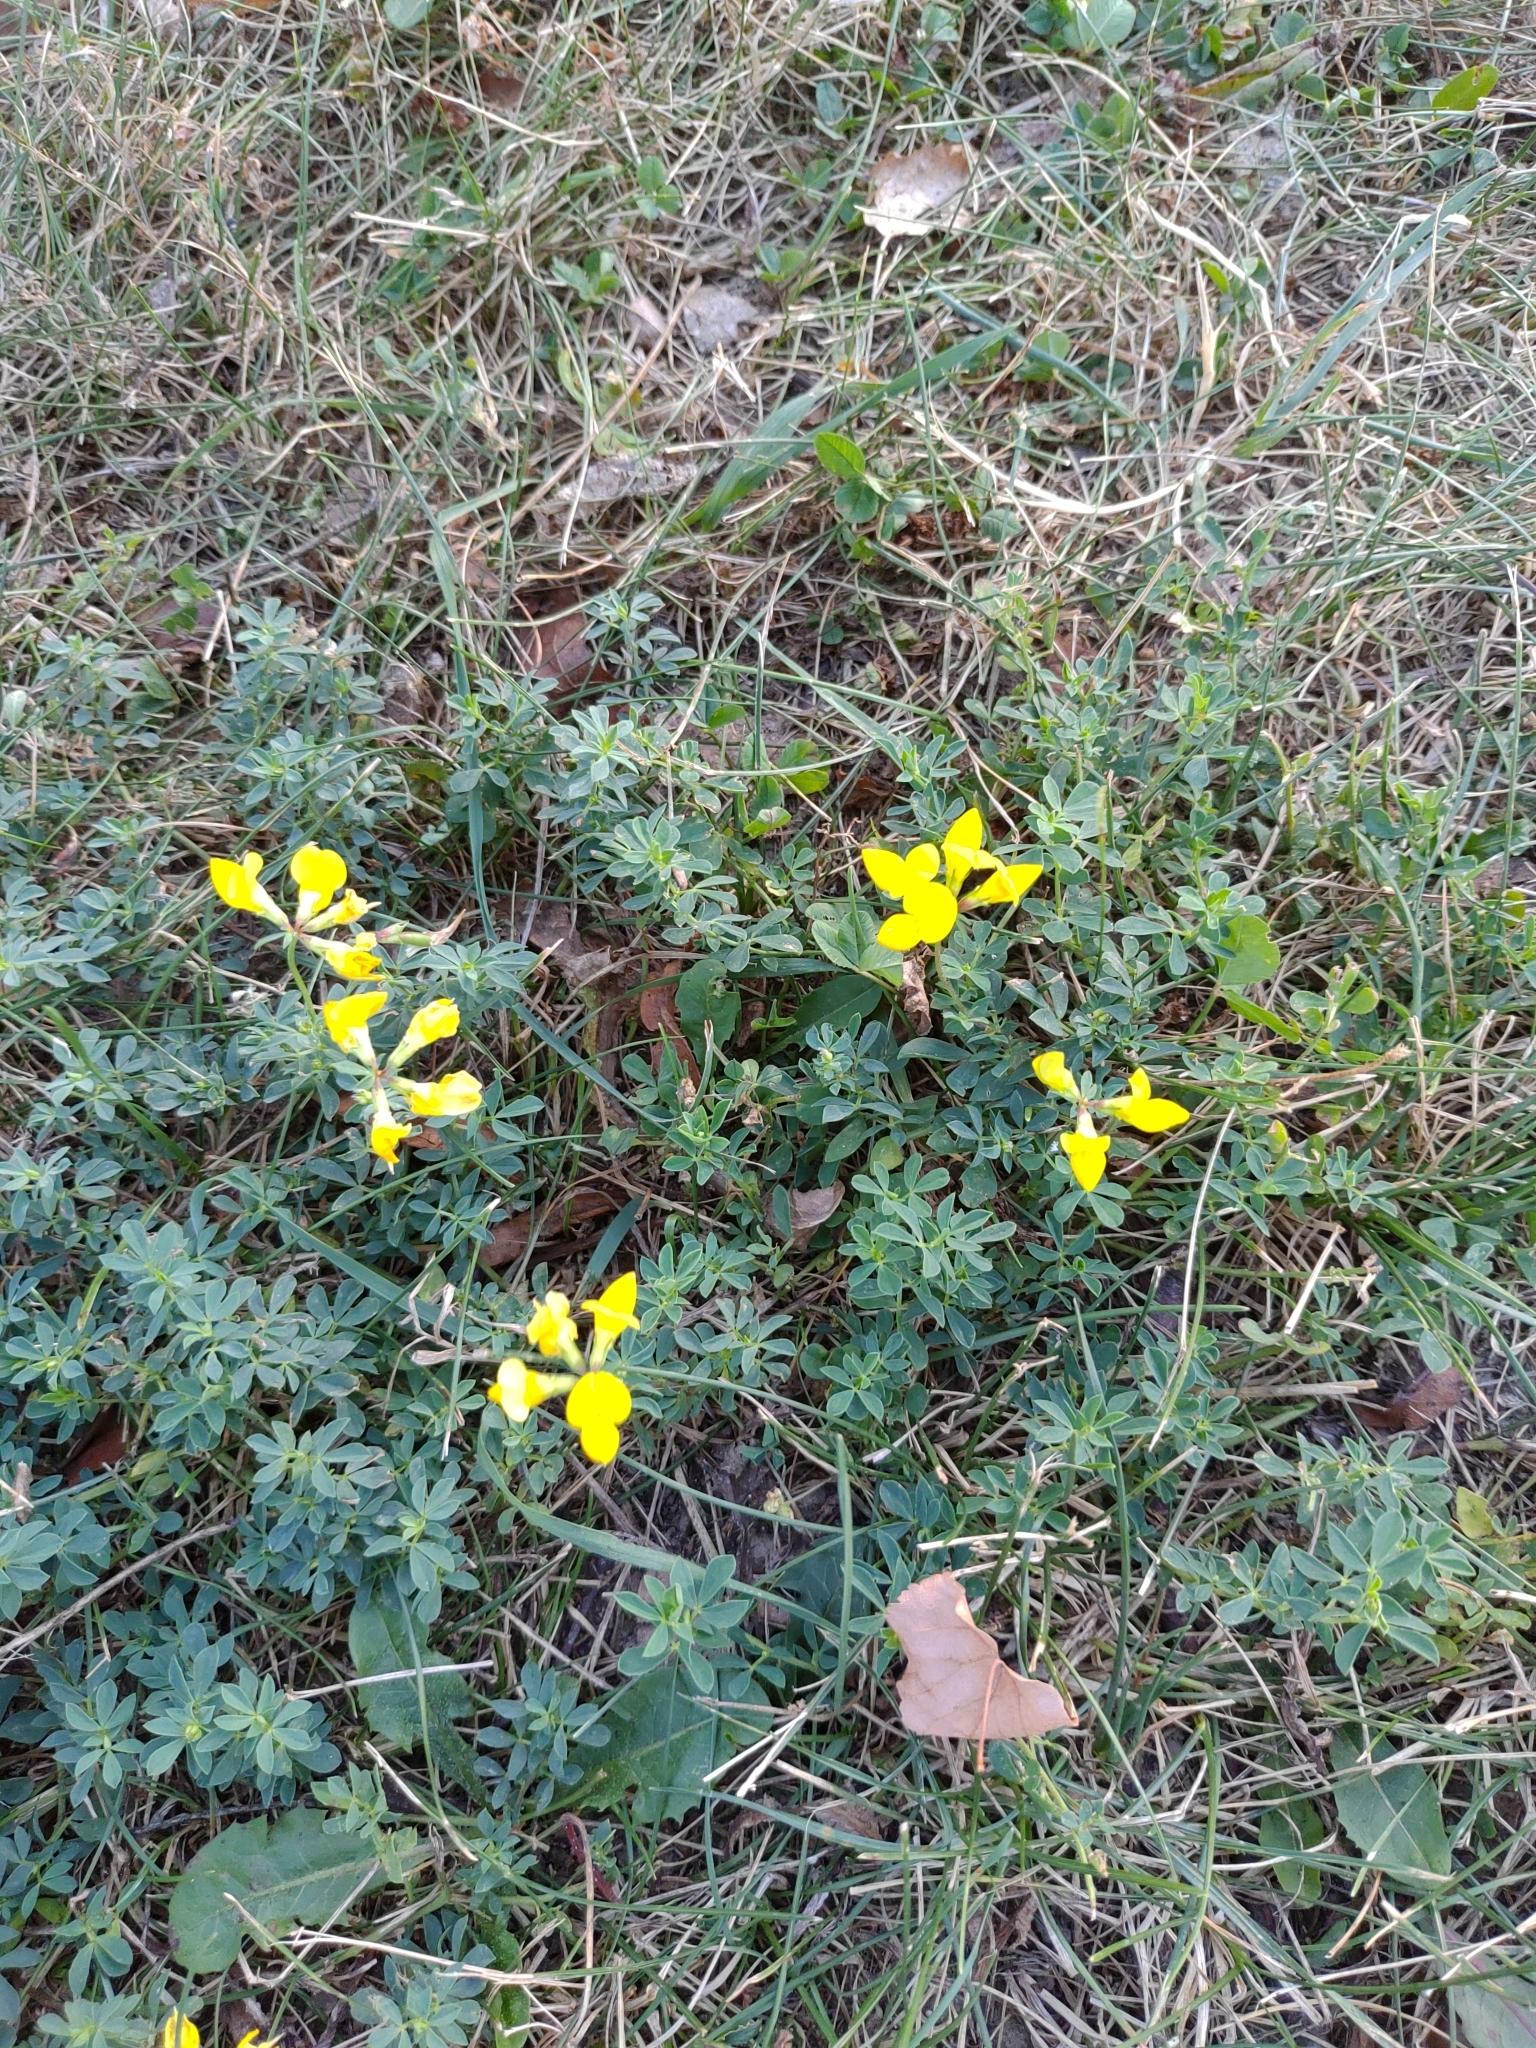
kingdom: Plantae
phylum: Tracheophyta
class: Magnoliopsida
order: Fabales
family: Fabaceae
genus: Lotus
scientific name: Lotus corniculatus
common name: Common bird's-foot-trefoil
